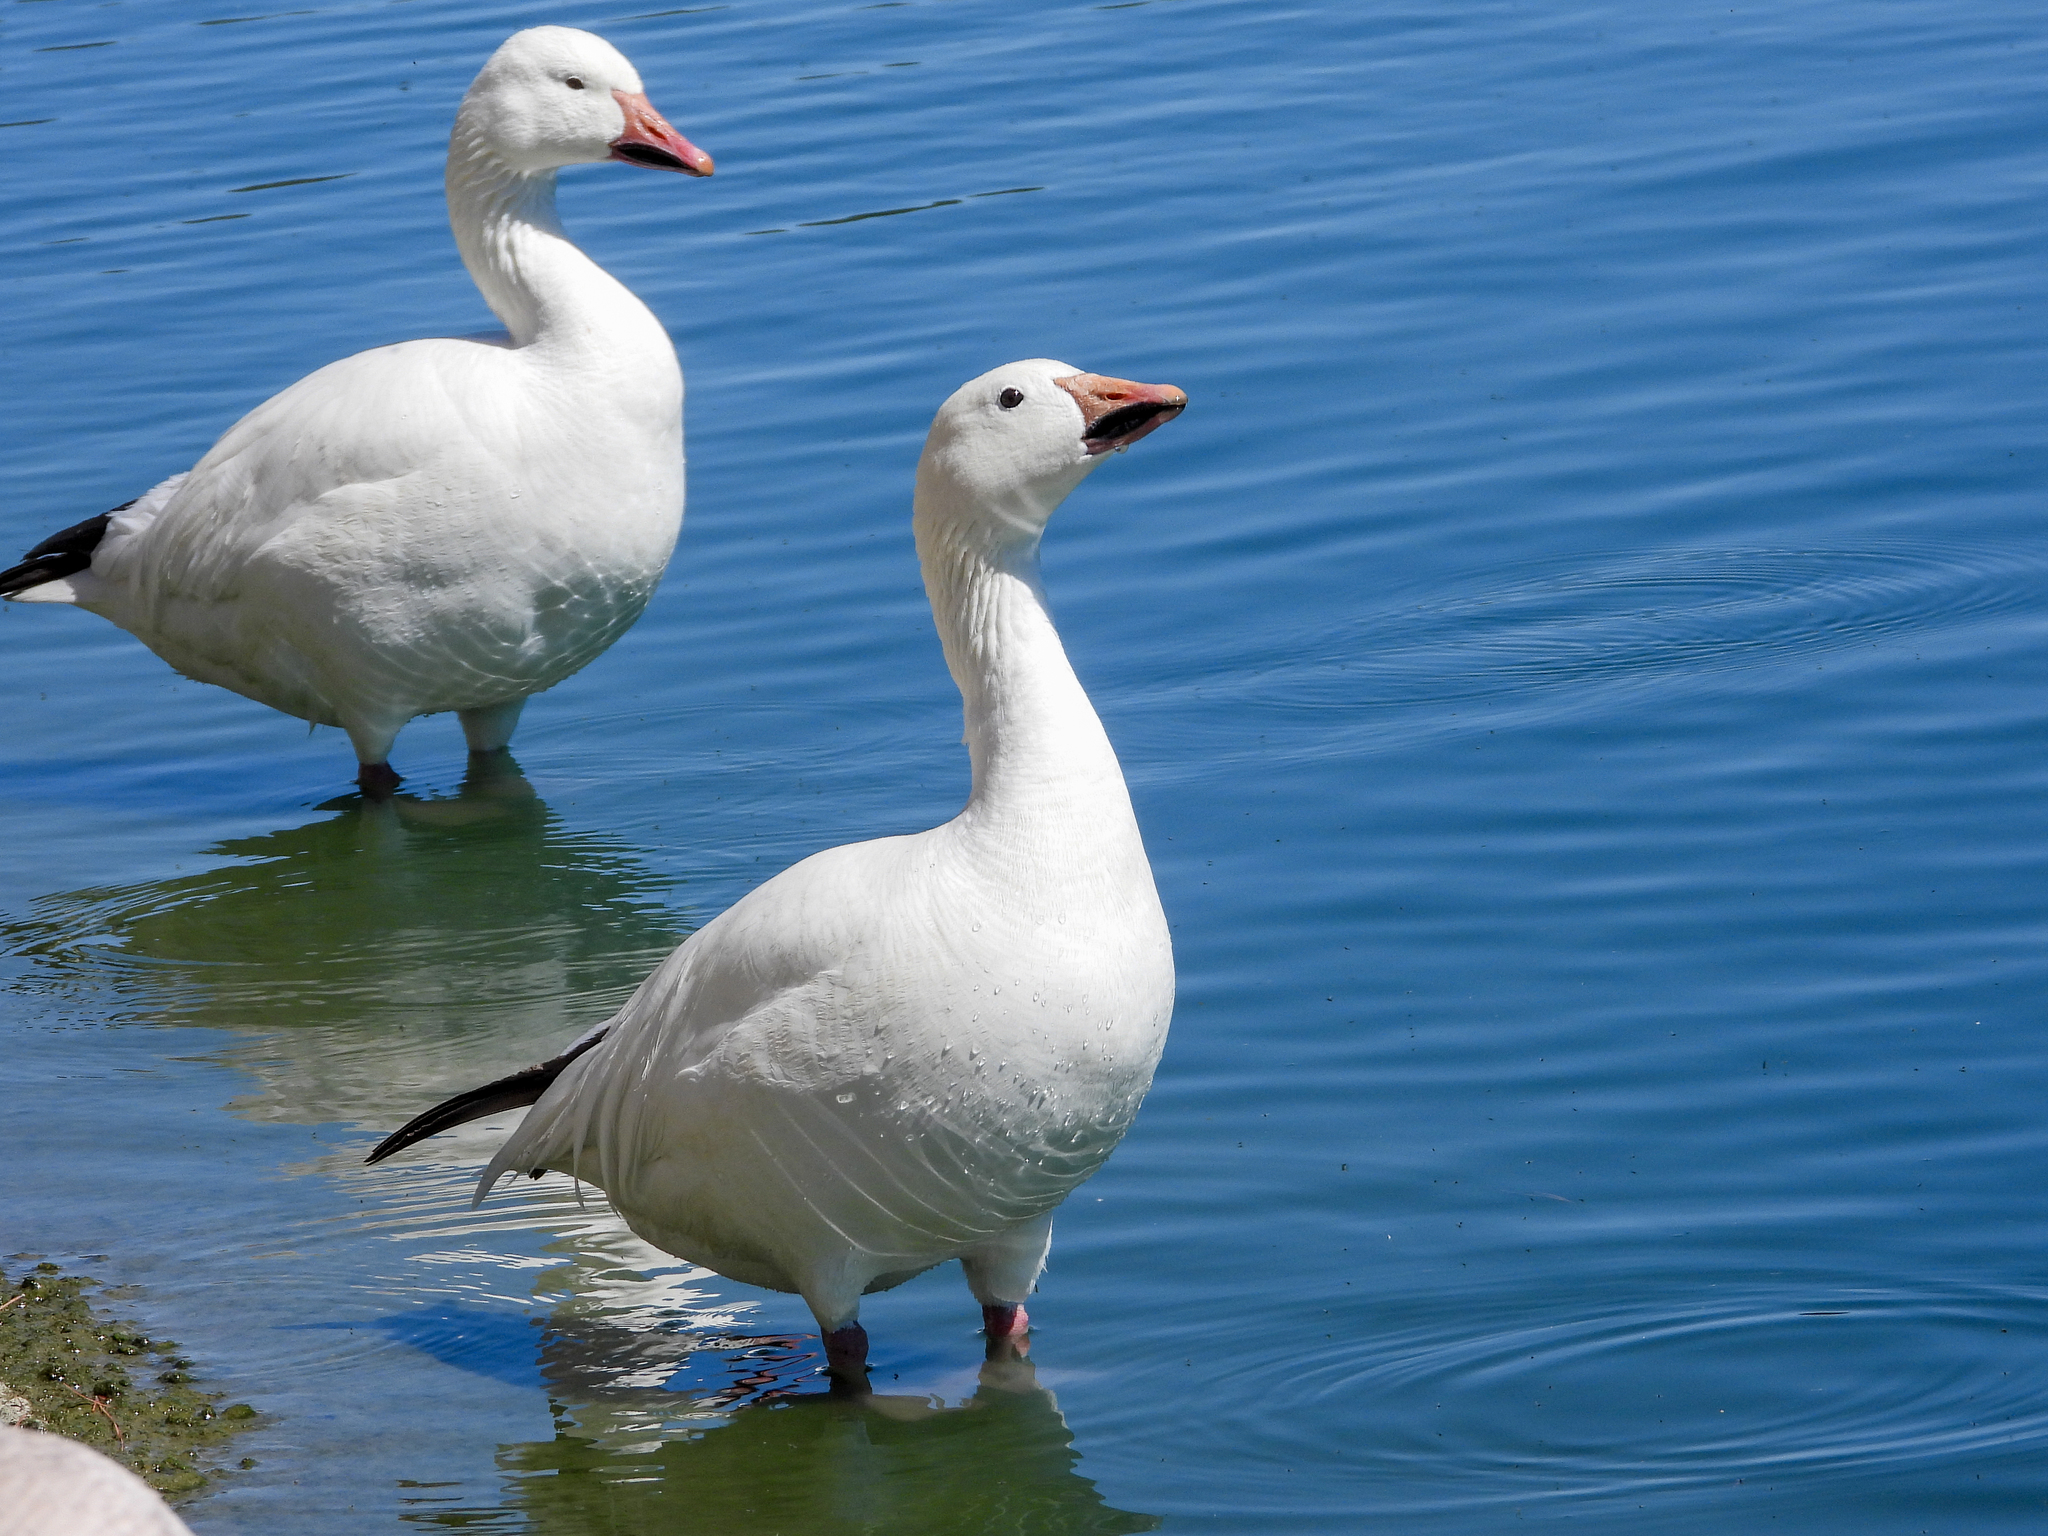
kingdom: Animalia
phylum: Chordata
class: Aves
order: Anseriformes
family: Anatidae
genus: Anser
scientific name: Anser caerulescens
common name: Snow goose
